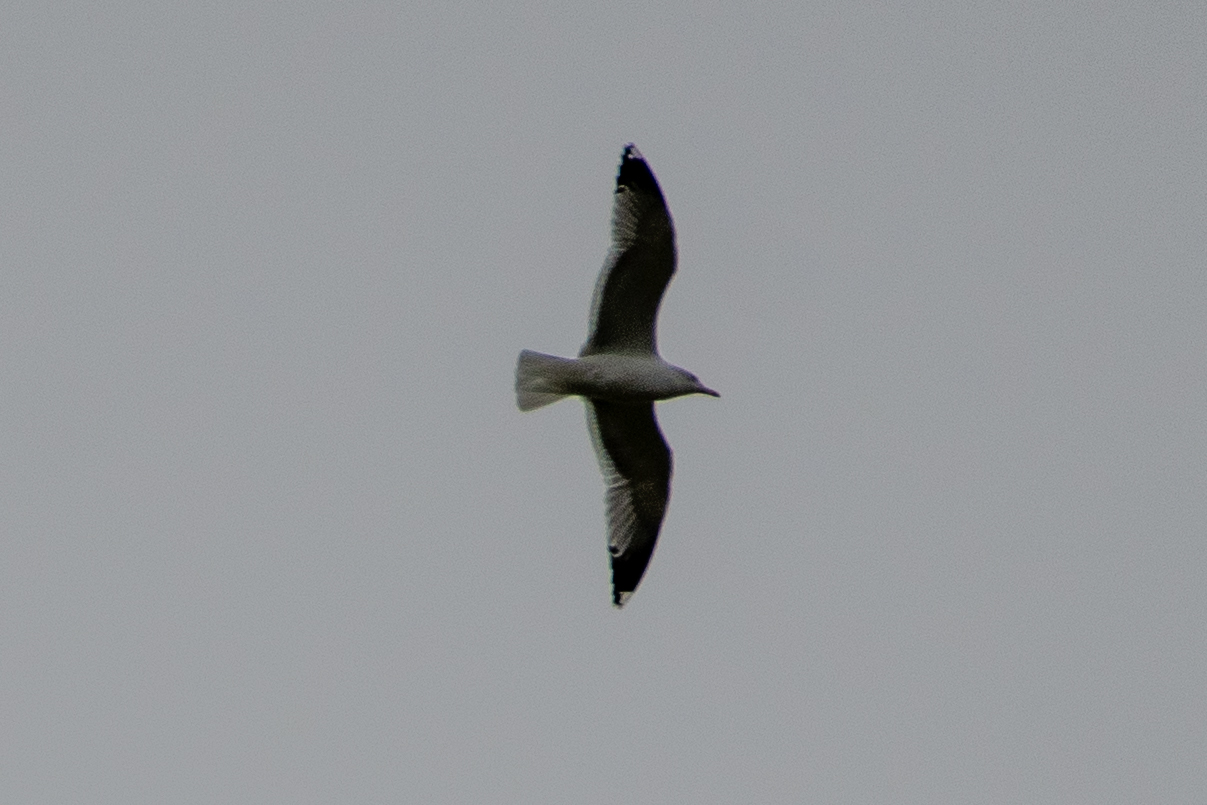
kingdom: Animalia
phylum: Chordata
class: Aves
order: Charadriiformes
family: Laridae
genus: Larus
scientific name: Larus
